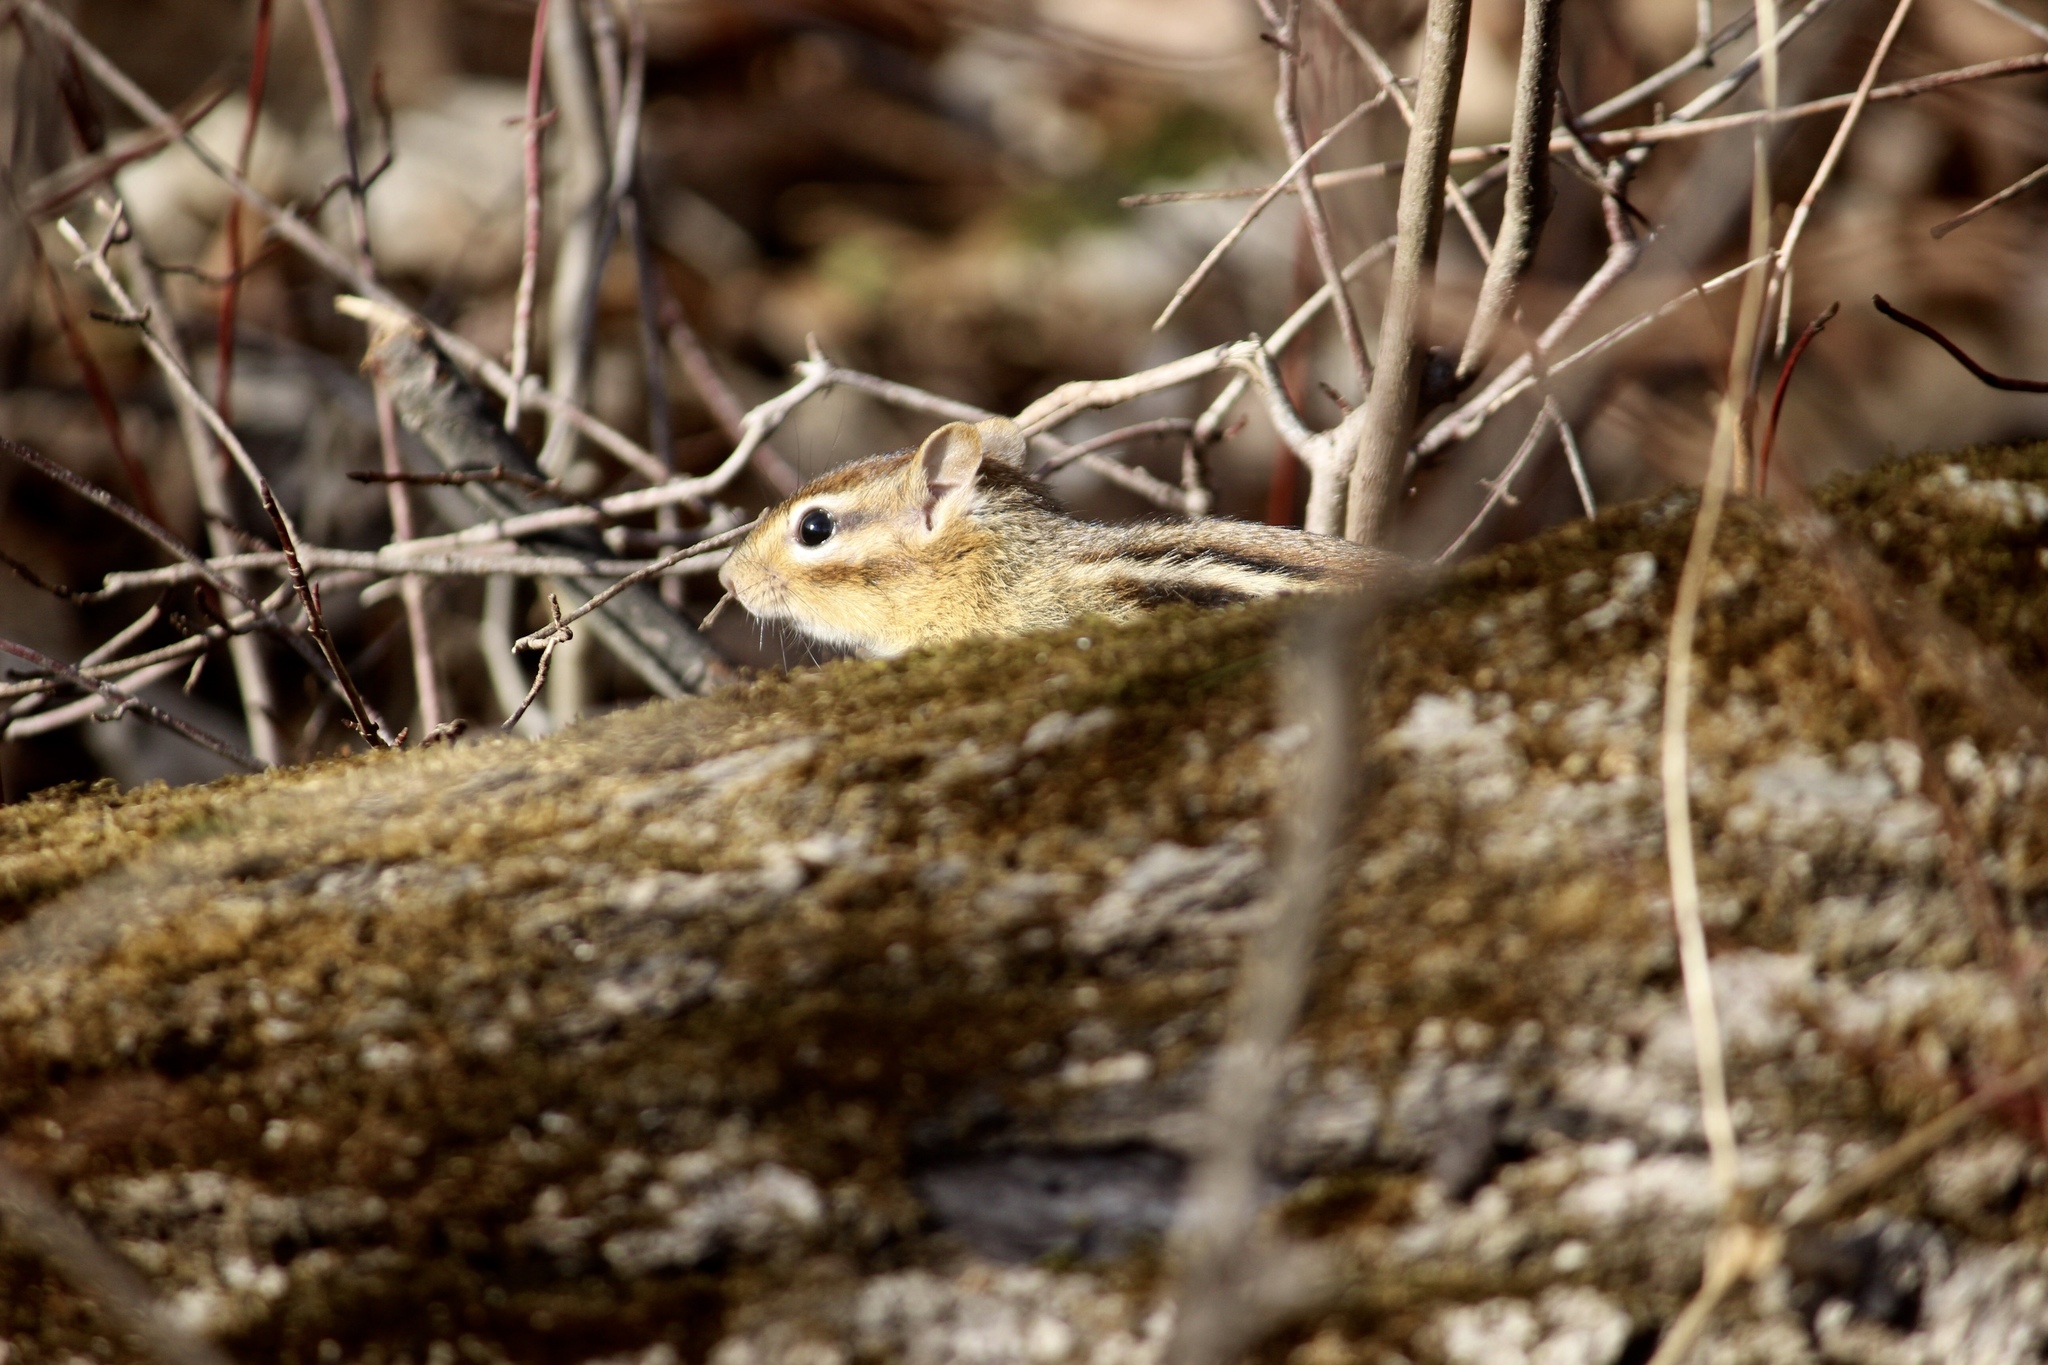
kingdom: Animalia
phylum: Chordata
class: Mammalia
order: Rodentia
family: Sciuridae
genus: Tamias
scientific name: Tamias striatus
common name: Eastern chipmunk
